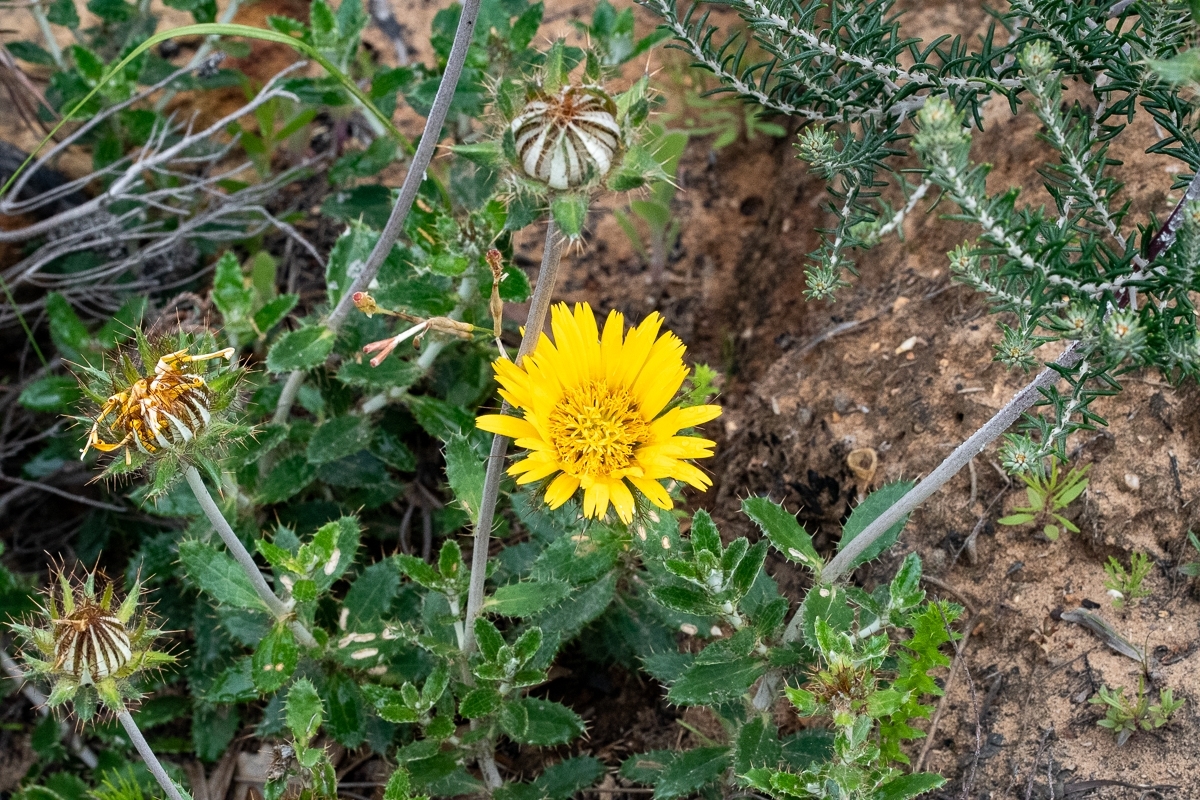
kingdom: Plantae
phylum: Tracheophyta
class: Magnoliopsida
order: Asterales
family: Asteraceae
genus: Berkheya
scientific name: Berkheya barbata
